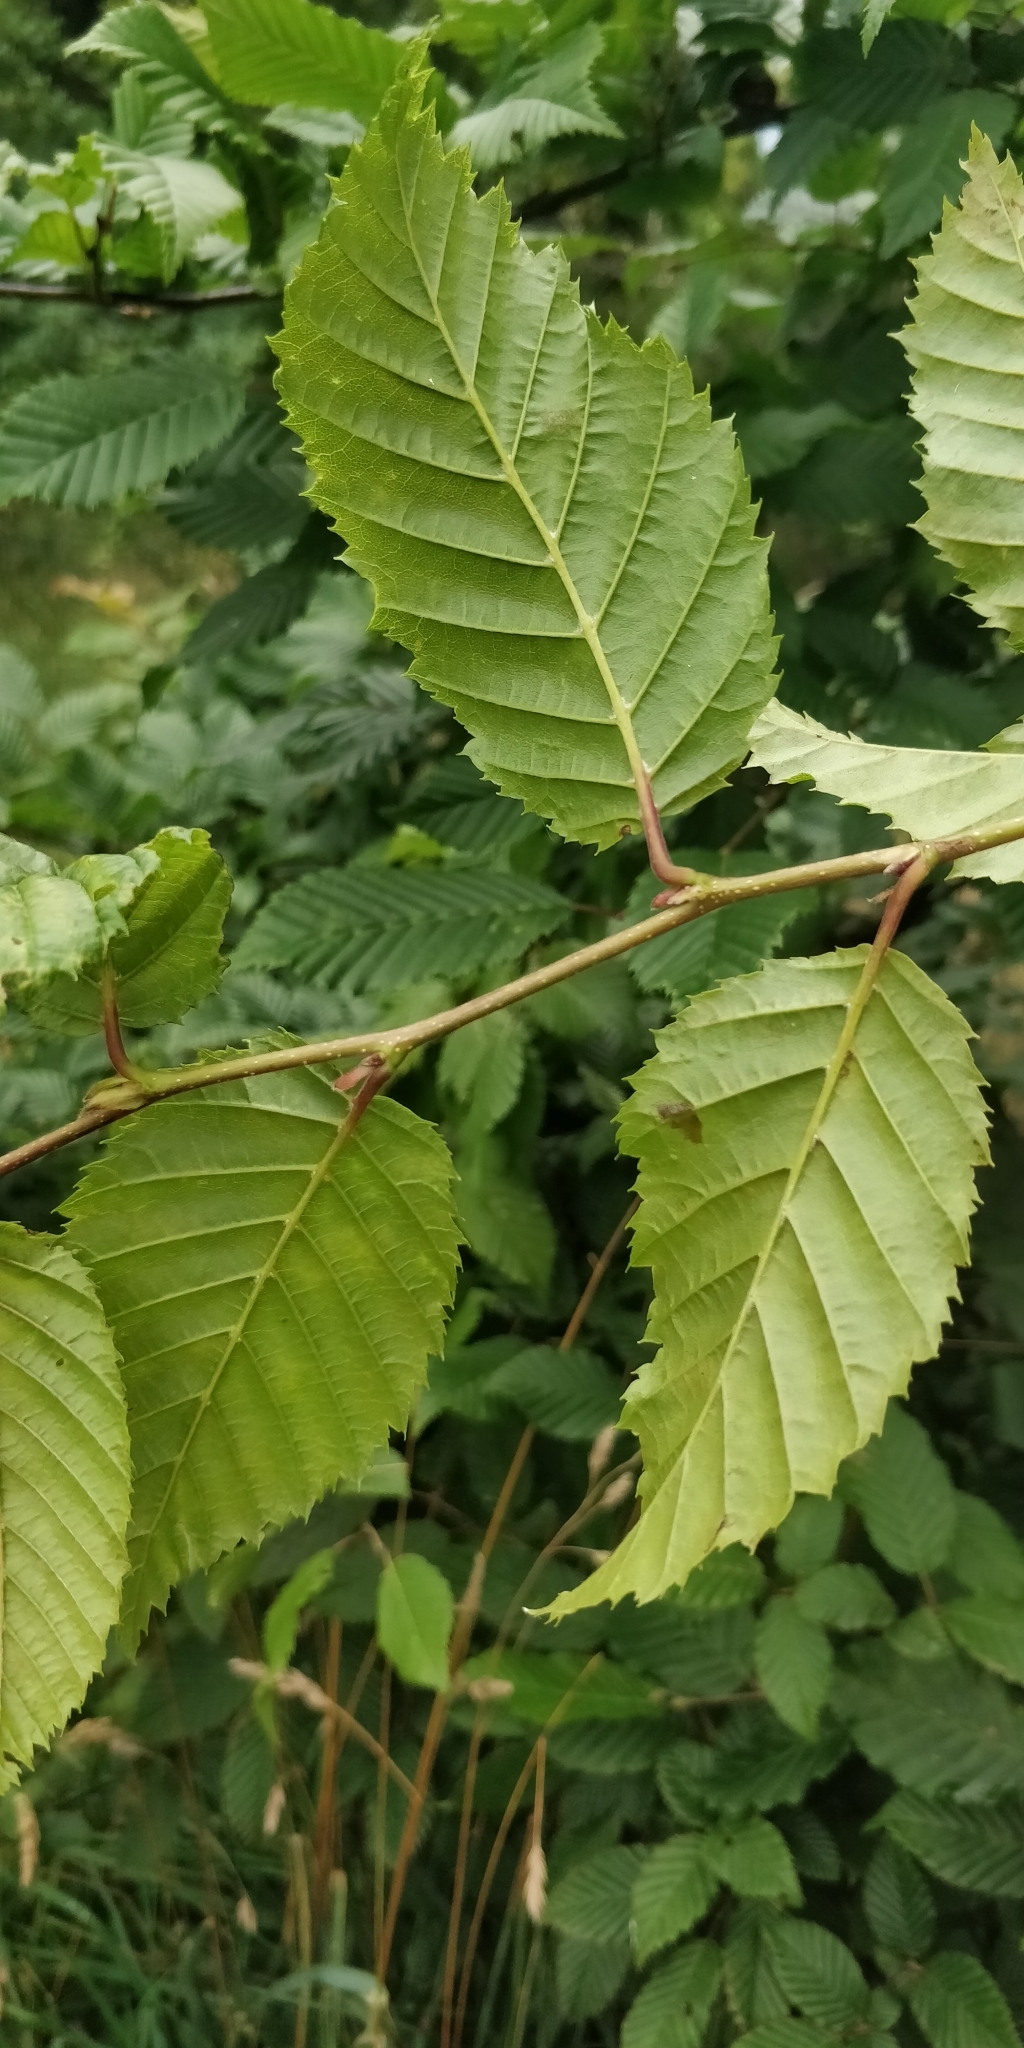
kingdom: Plantae
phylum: Tracheophyta
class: Magnoliopsida
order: Fagales
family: Betulaceae
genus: Carpinus
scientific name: Carpinus betulus
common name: Hornbeam
